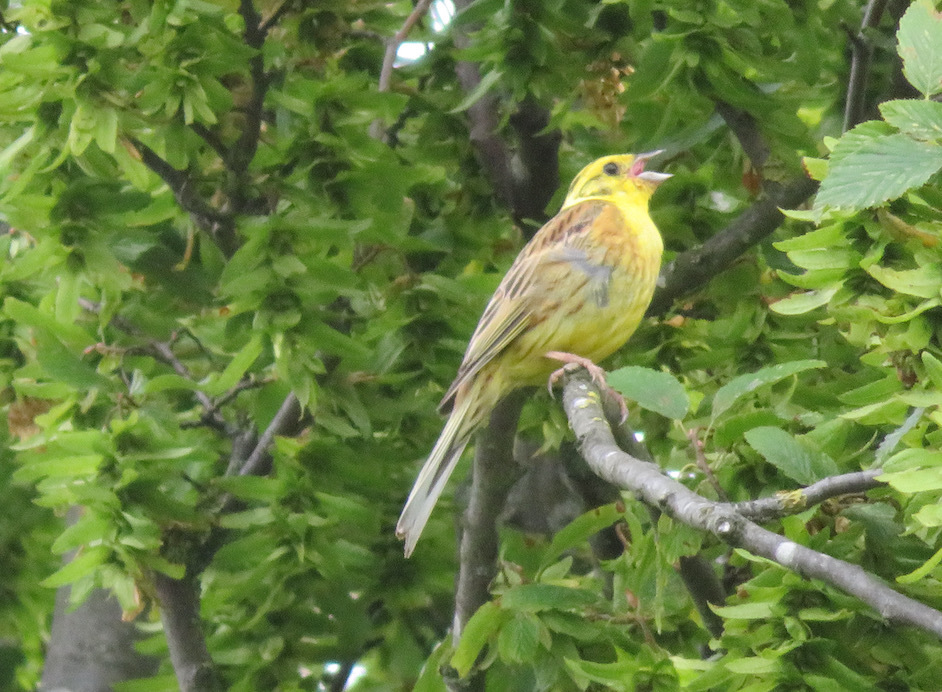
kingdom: Animalia
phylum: Chordata
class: Aves
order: Passeriformes
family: Emberizidae
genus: Emberiza
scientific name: Emberiza citrinella
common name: Yellowhammer
